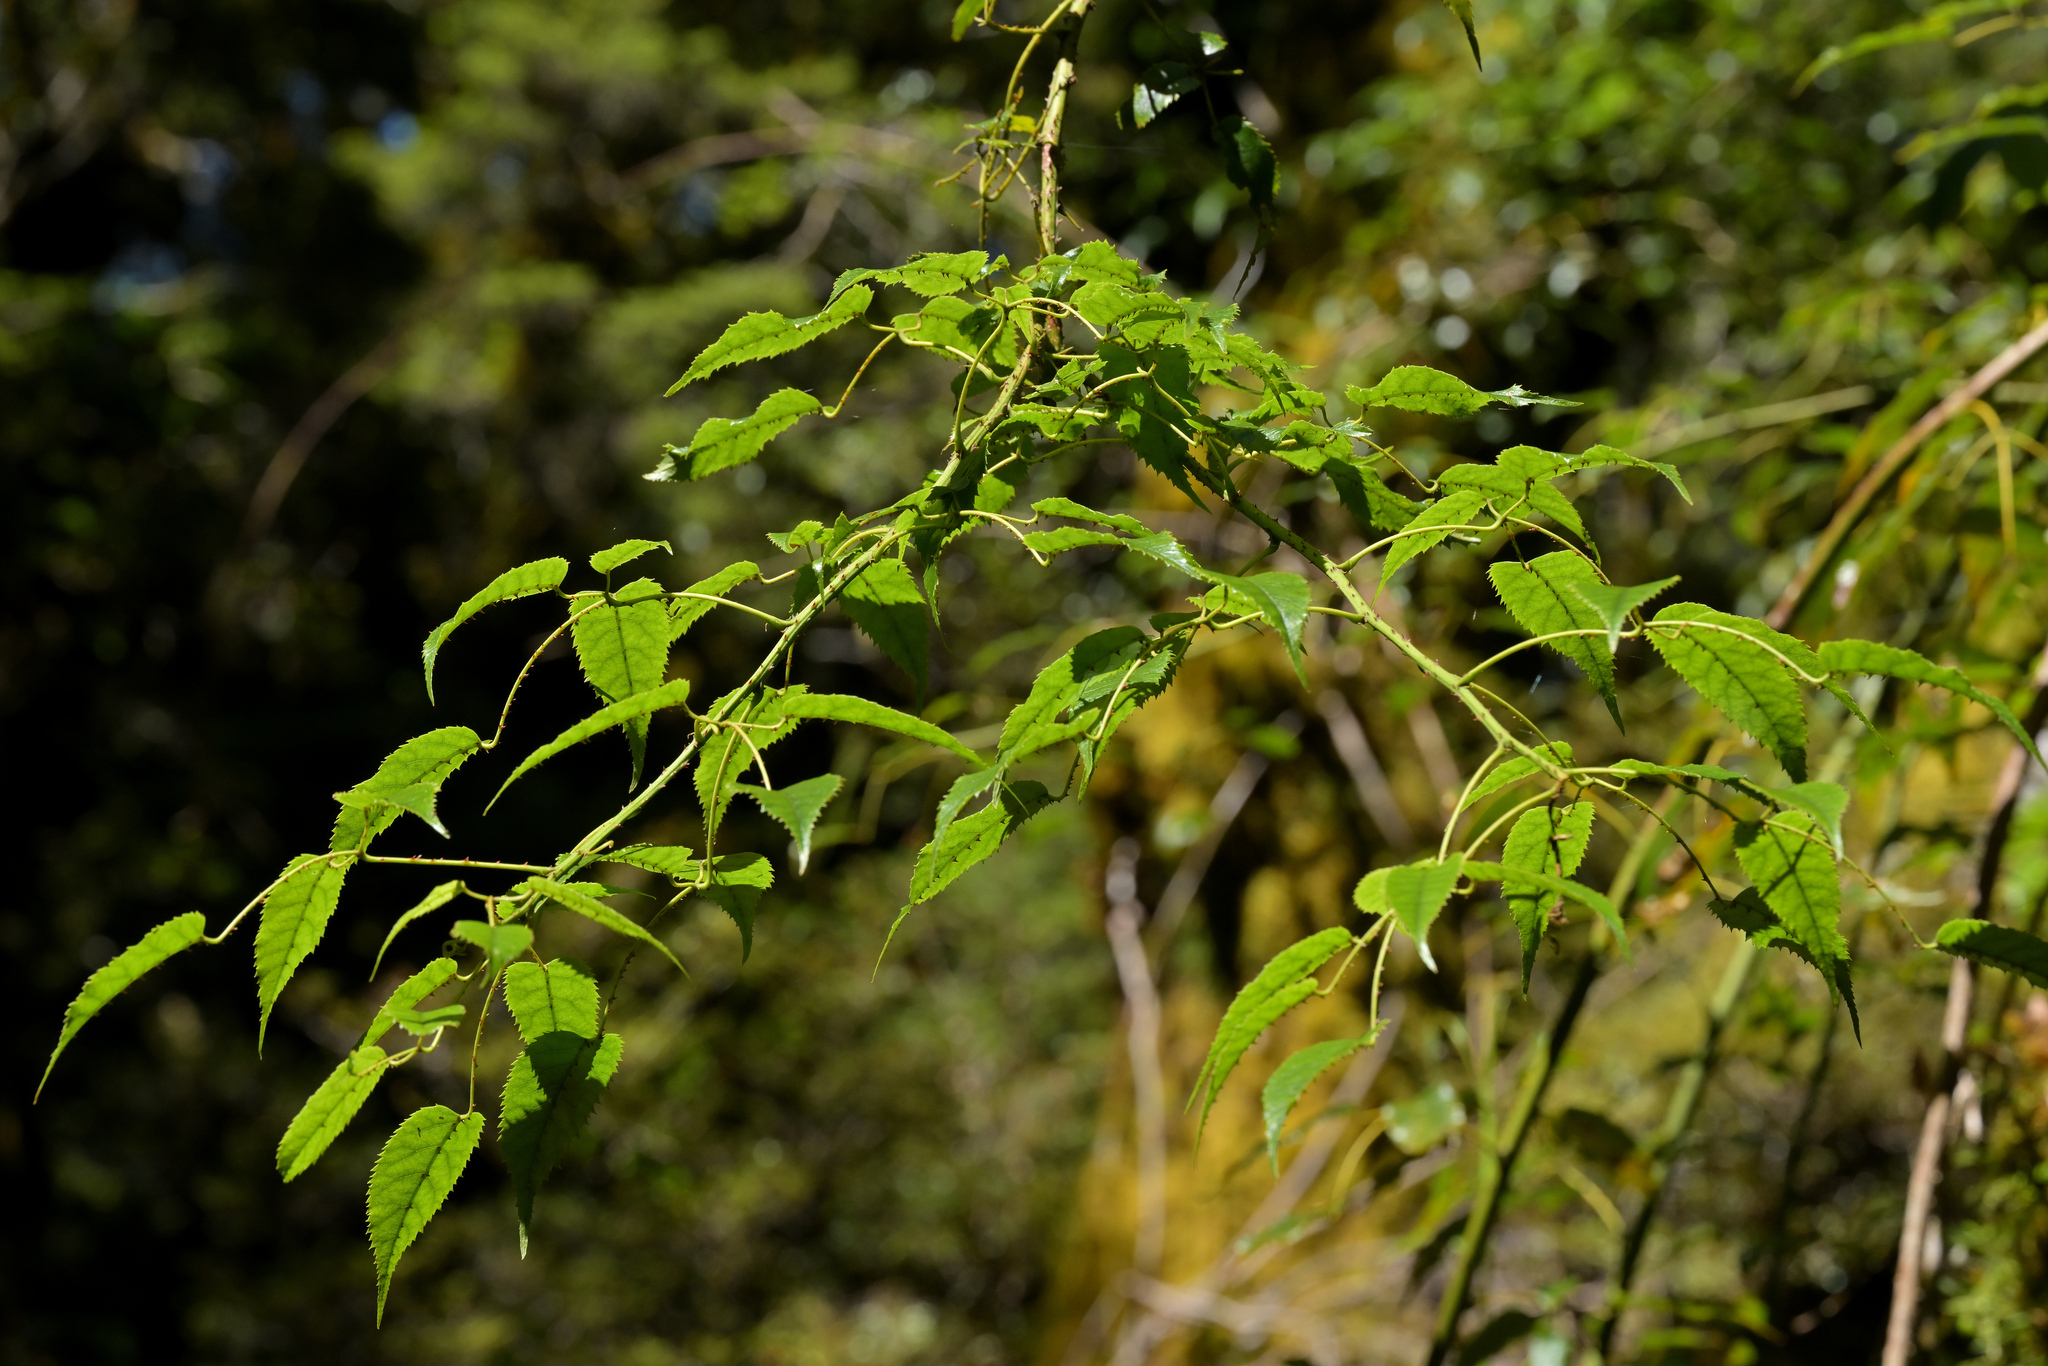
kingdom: Plantae
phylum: Tracheophyta
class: Magnoliopsida
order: Rosales
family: Rosaceae
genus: Rubus
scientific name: Rubus cissoides
